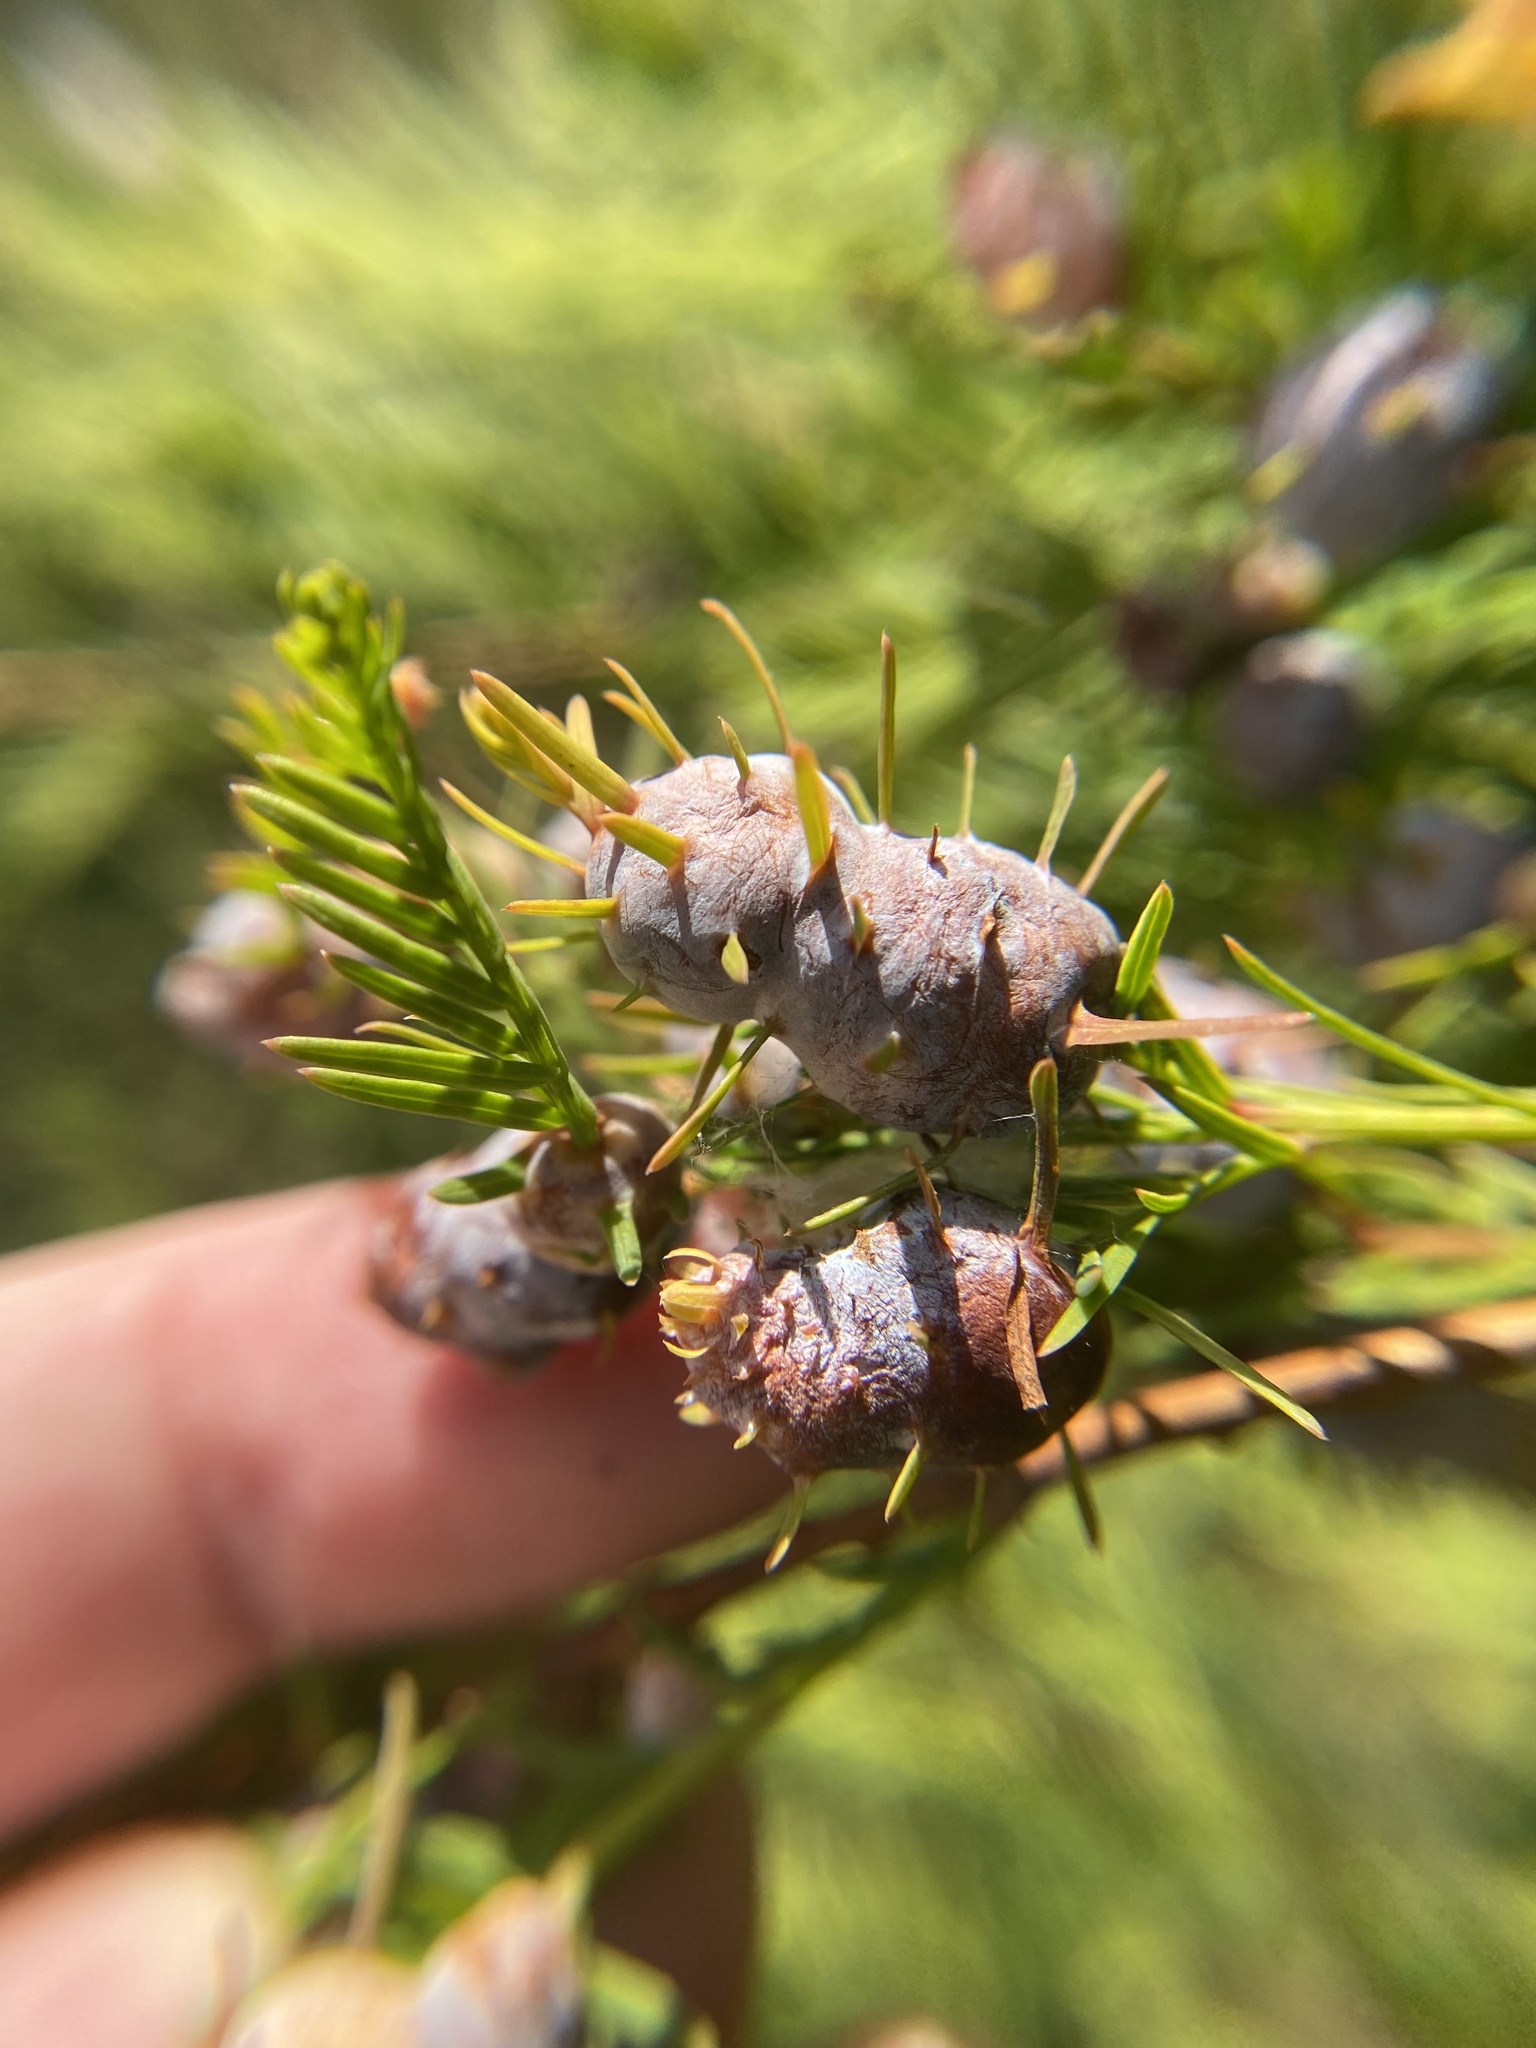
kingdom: Animalia
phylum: Arthropoda
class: Insecta
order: Diptera
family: Cecidomyiidae
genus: Taxodiomyia
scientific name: Taxodiomyia cupressiananassa
